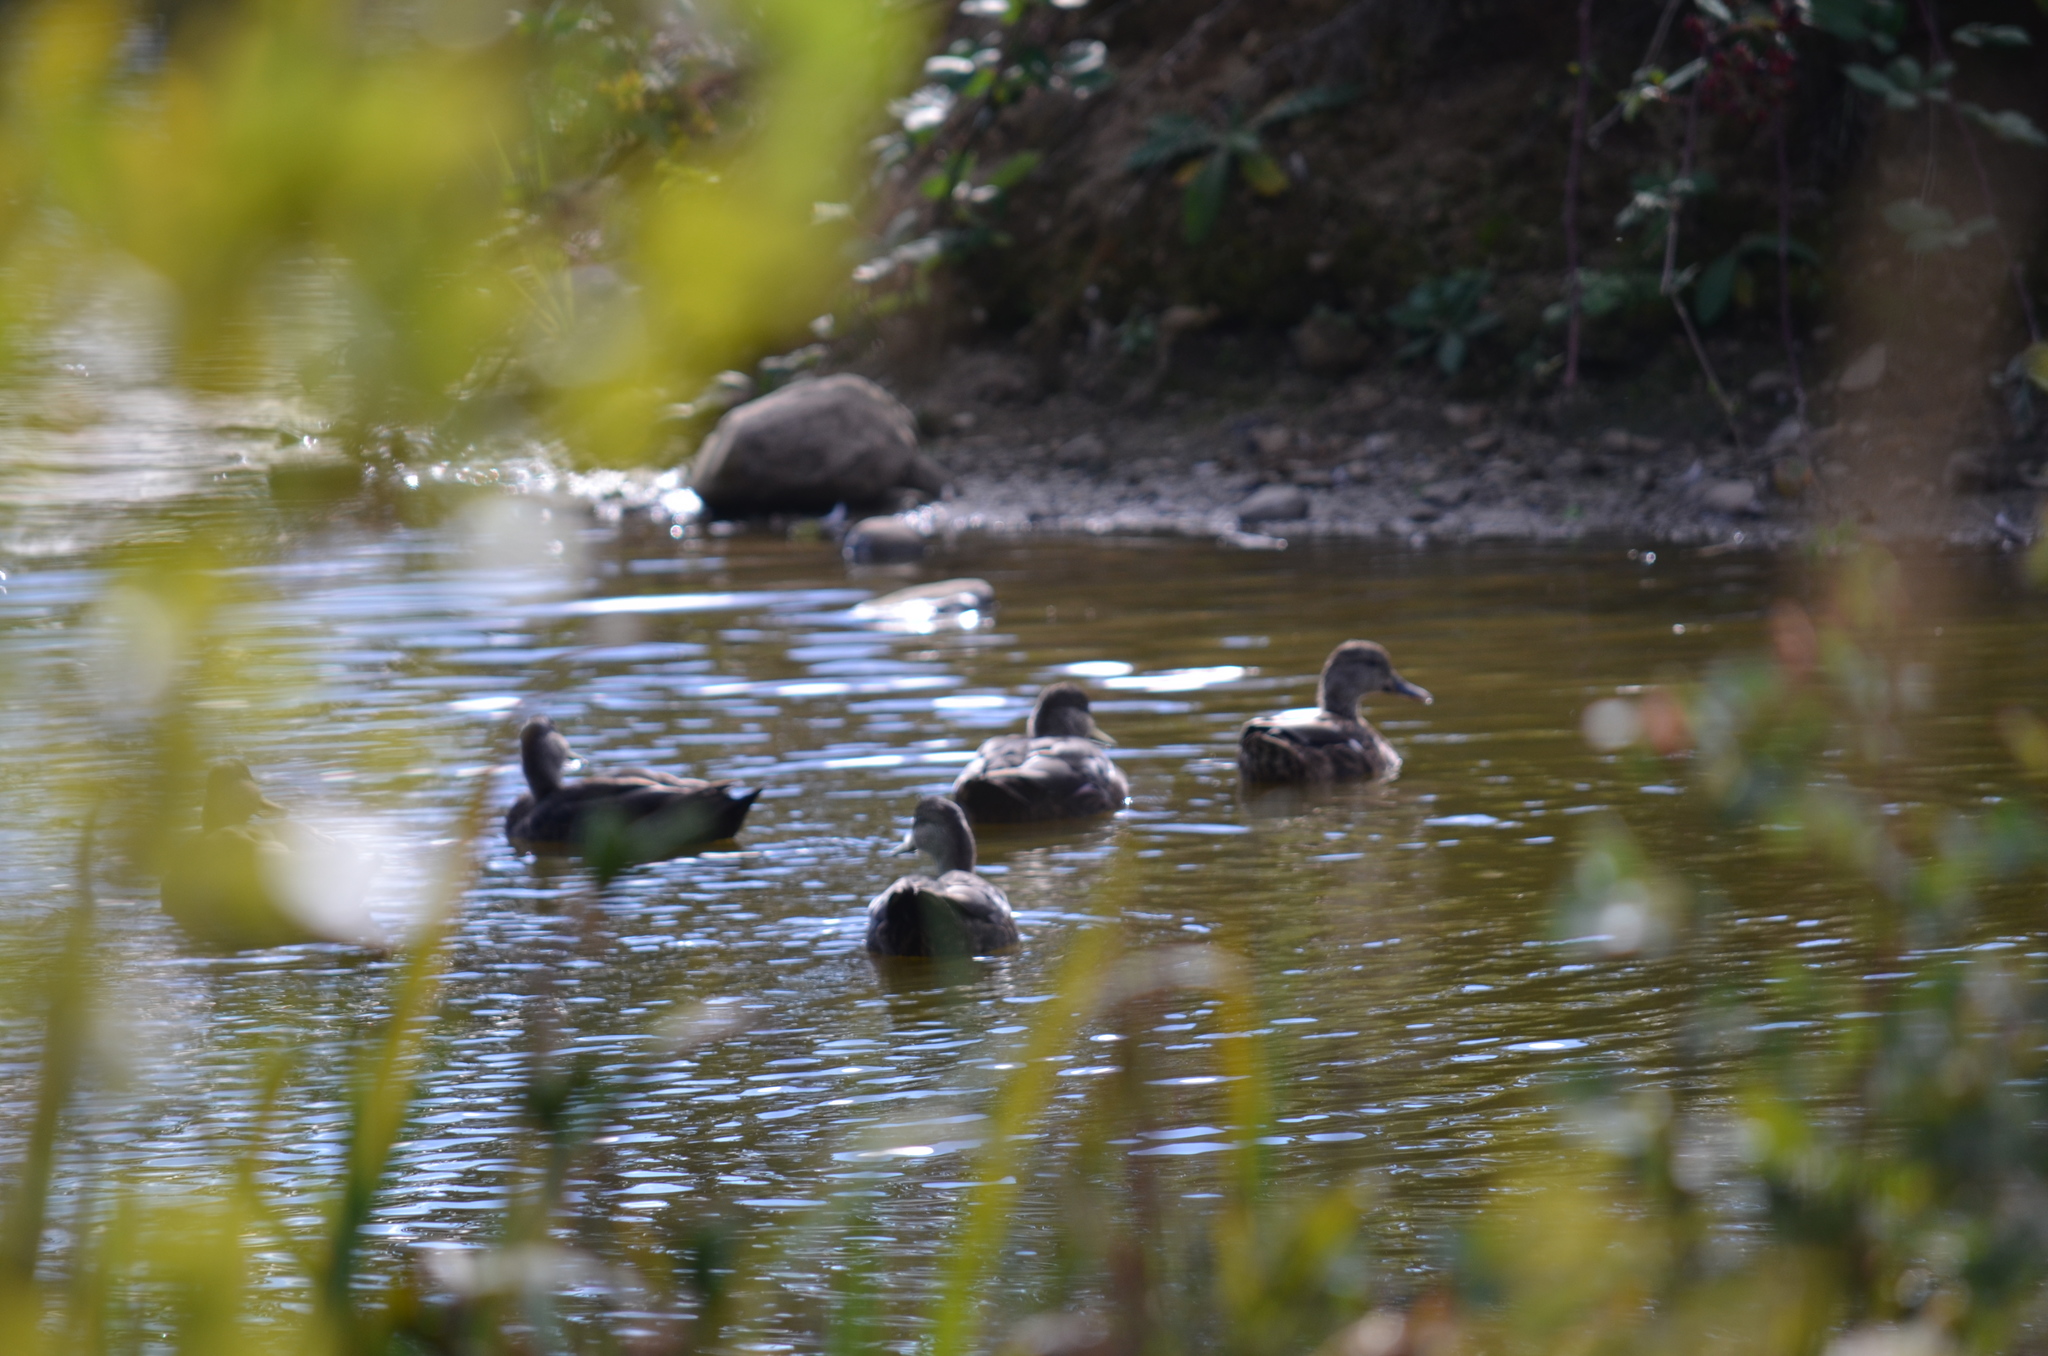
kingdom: Animalia
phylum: Chordata
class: Aves
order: Anseriformes
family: Anatidae
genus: Anas
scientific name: Anas rubripes
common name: American black duck
